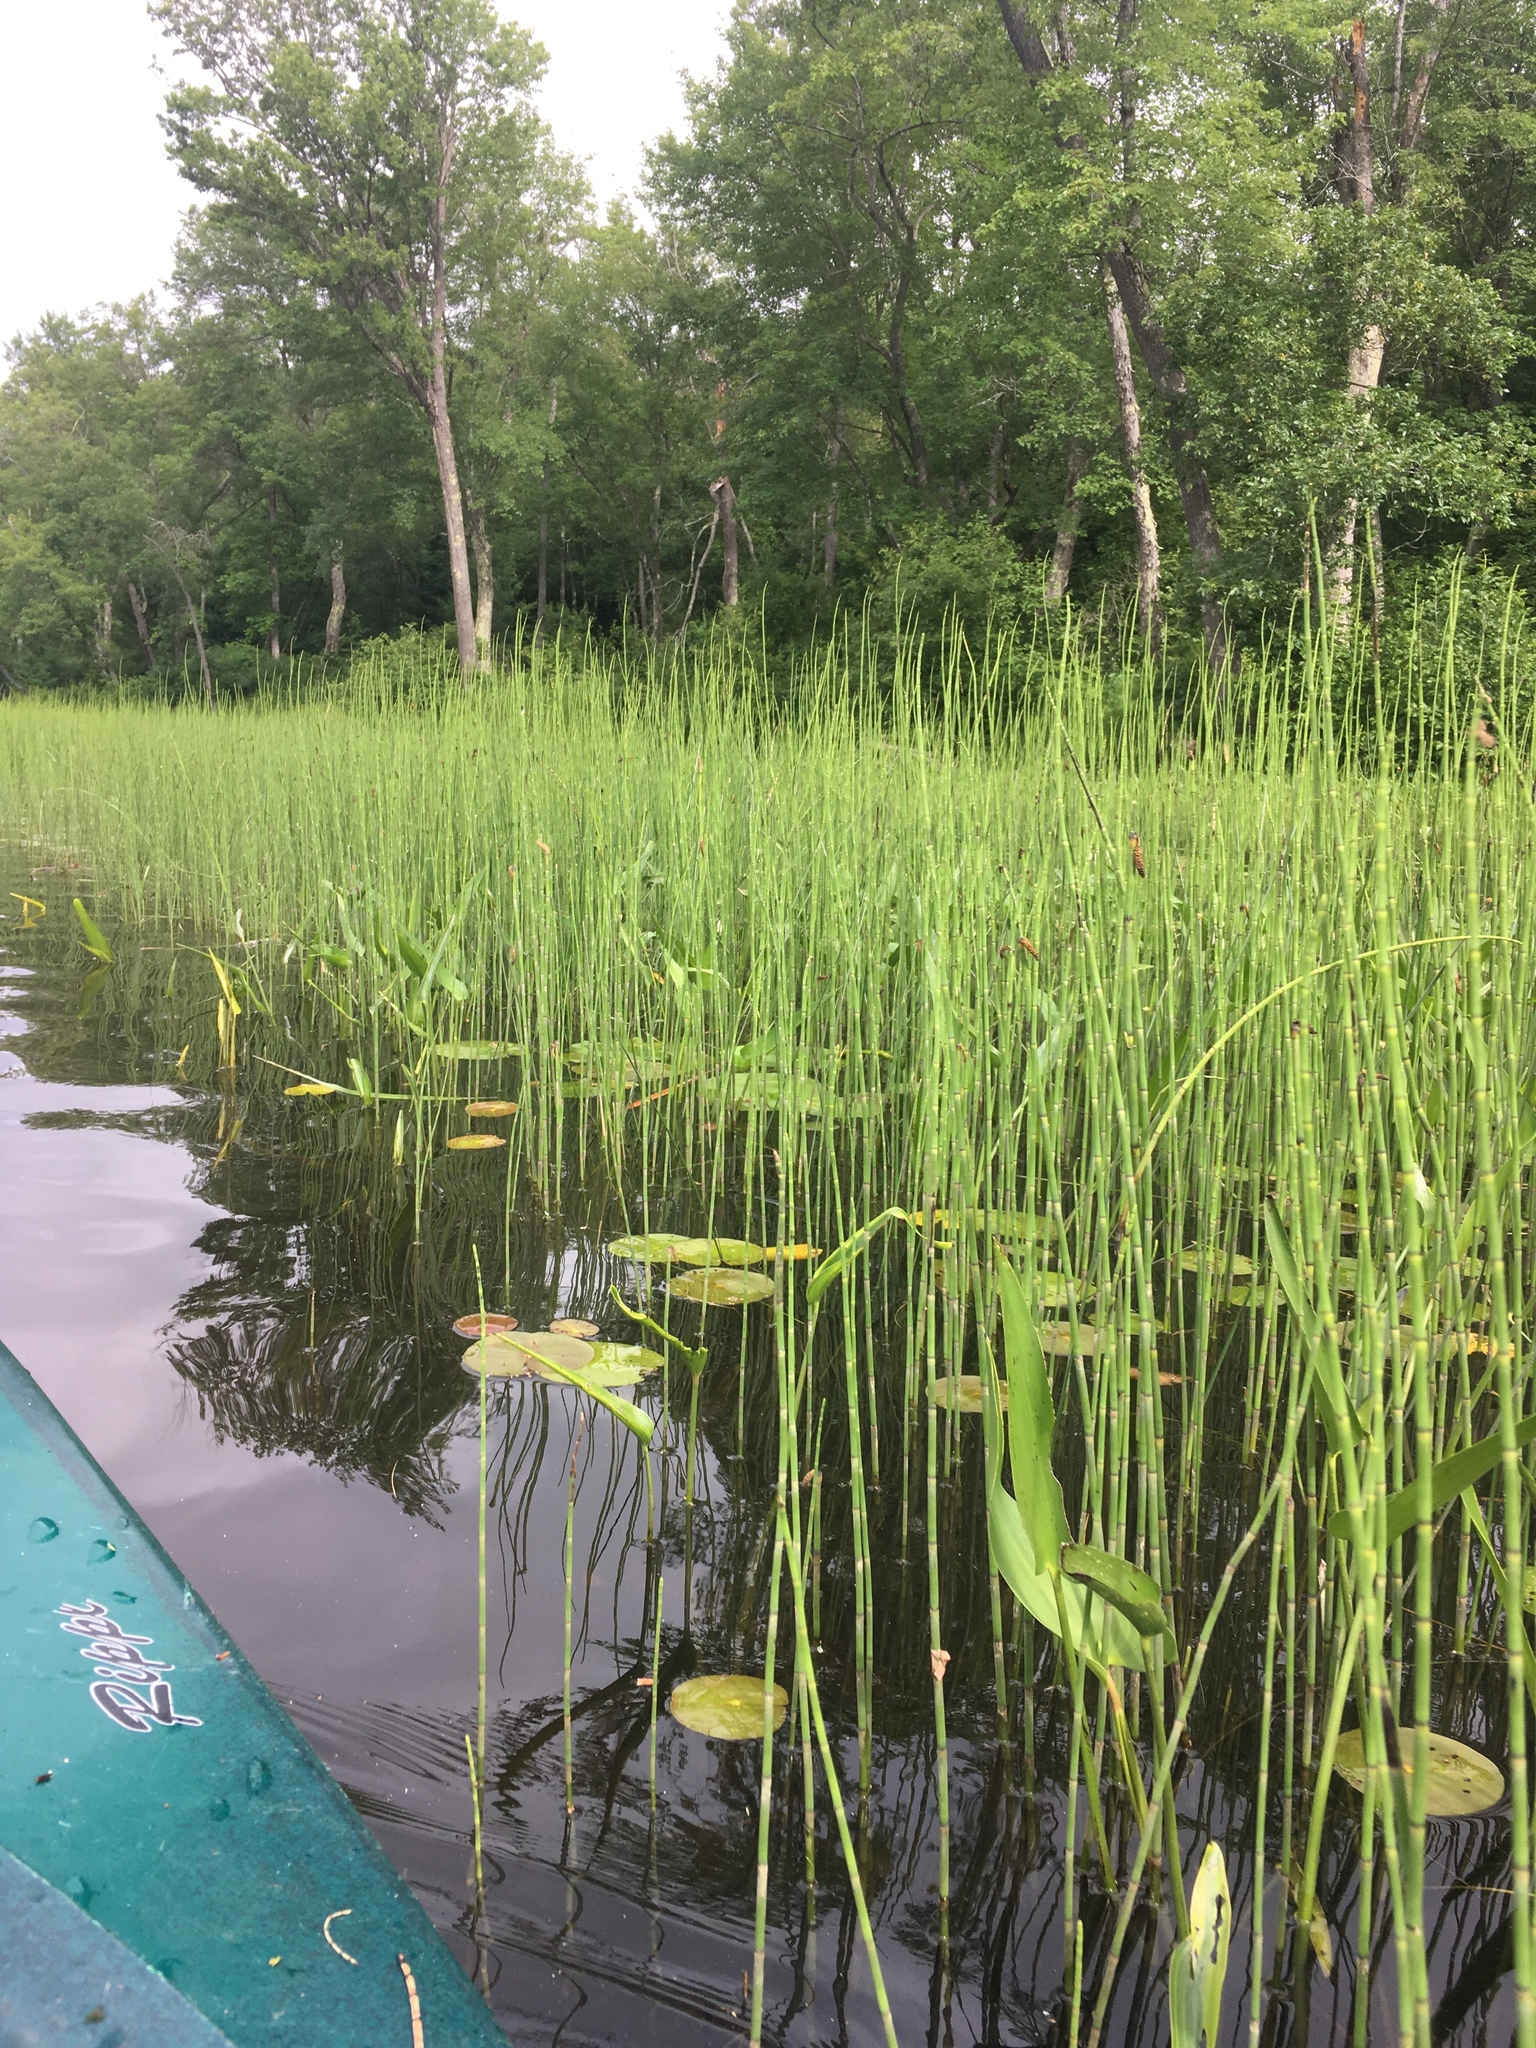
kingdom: Plantae
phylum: Tracheophyta
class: Polypodiopsida
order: Equisetales
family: Equisetaceae
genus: Equisetum
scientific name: Equisetum fluviatile
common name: Water horsetail
